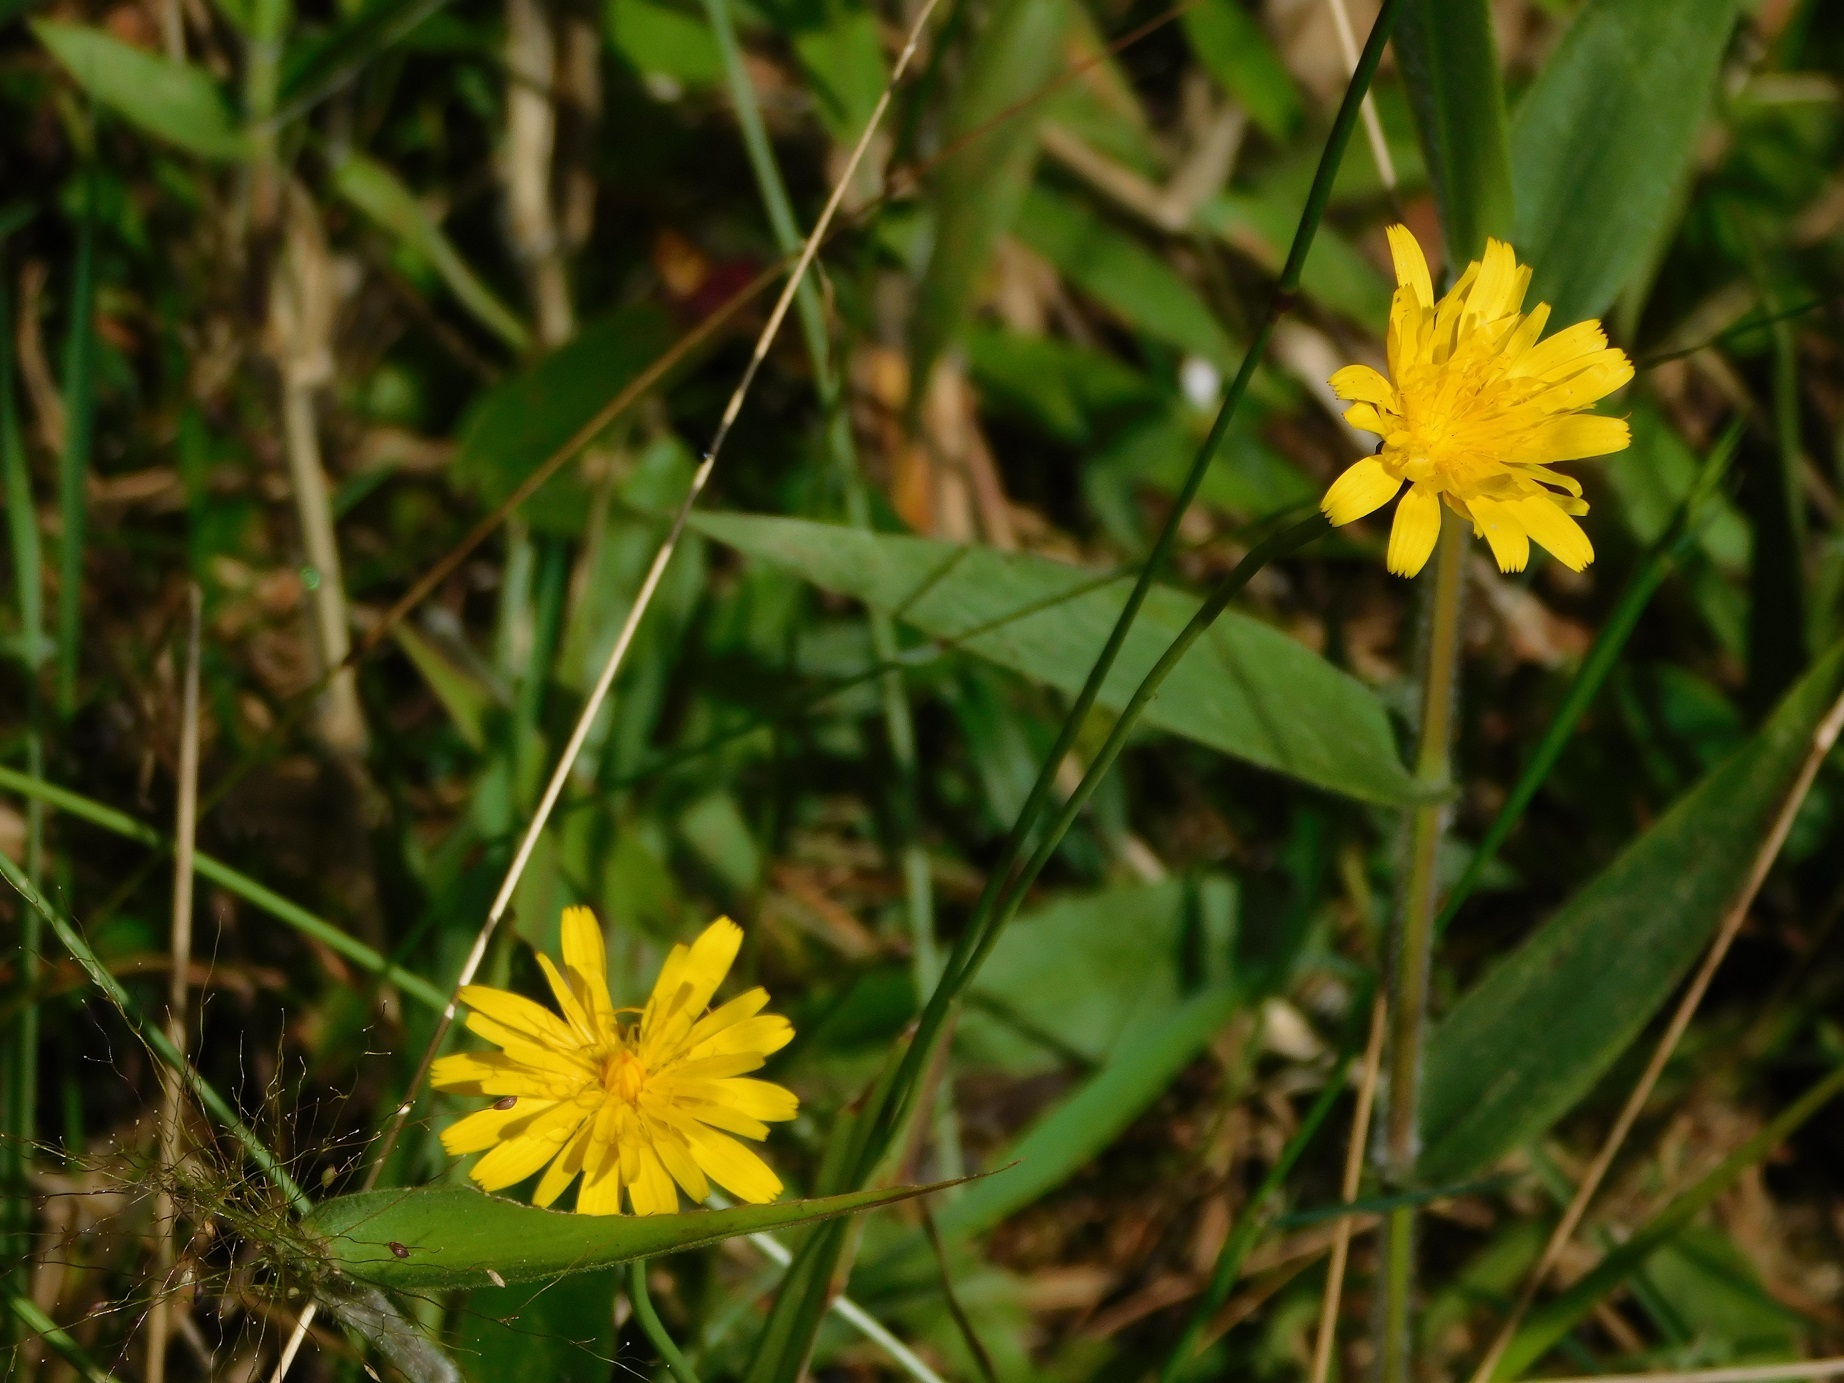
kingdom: Plantae
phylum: Tracheophyta
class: Magnoliopsida
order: Asterales
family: Asteraceae
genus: Hypochaeris
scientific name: Hypochaeris radicata
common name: Flatweed
